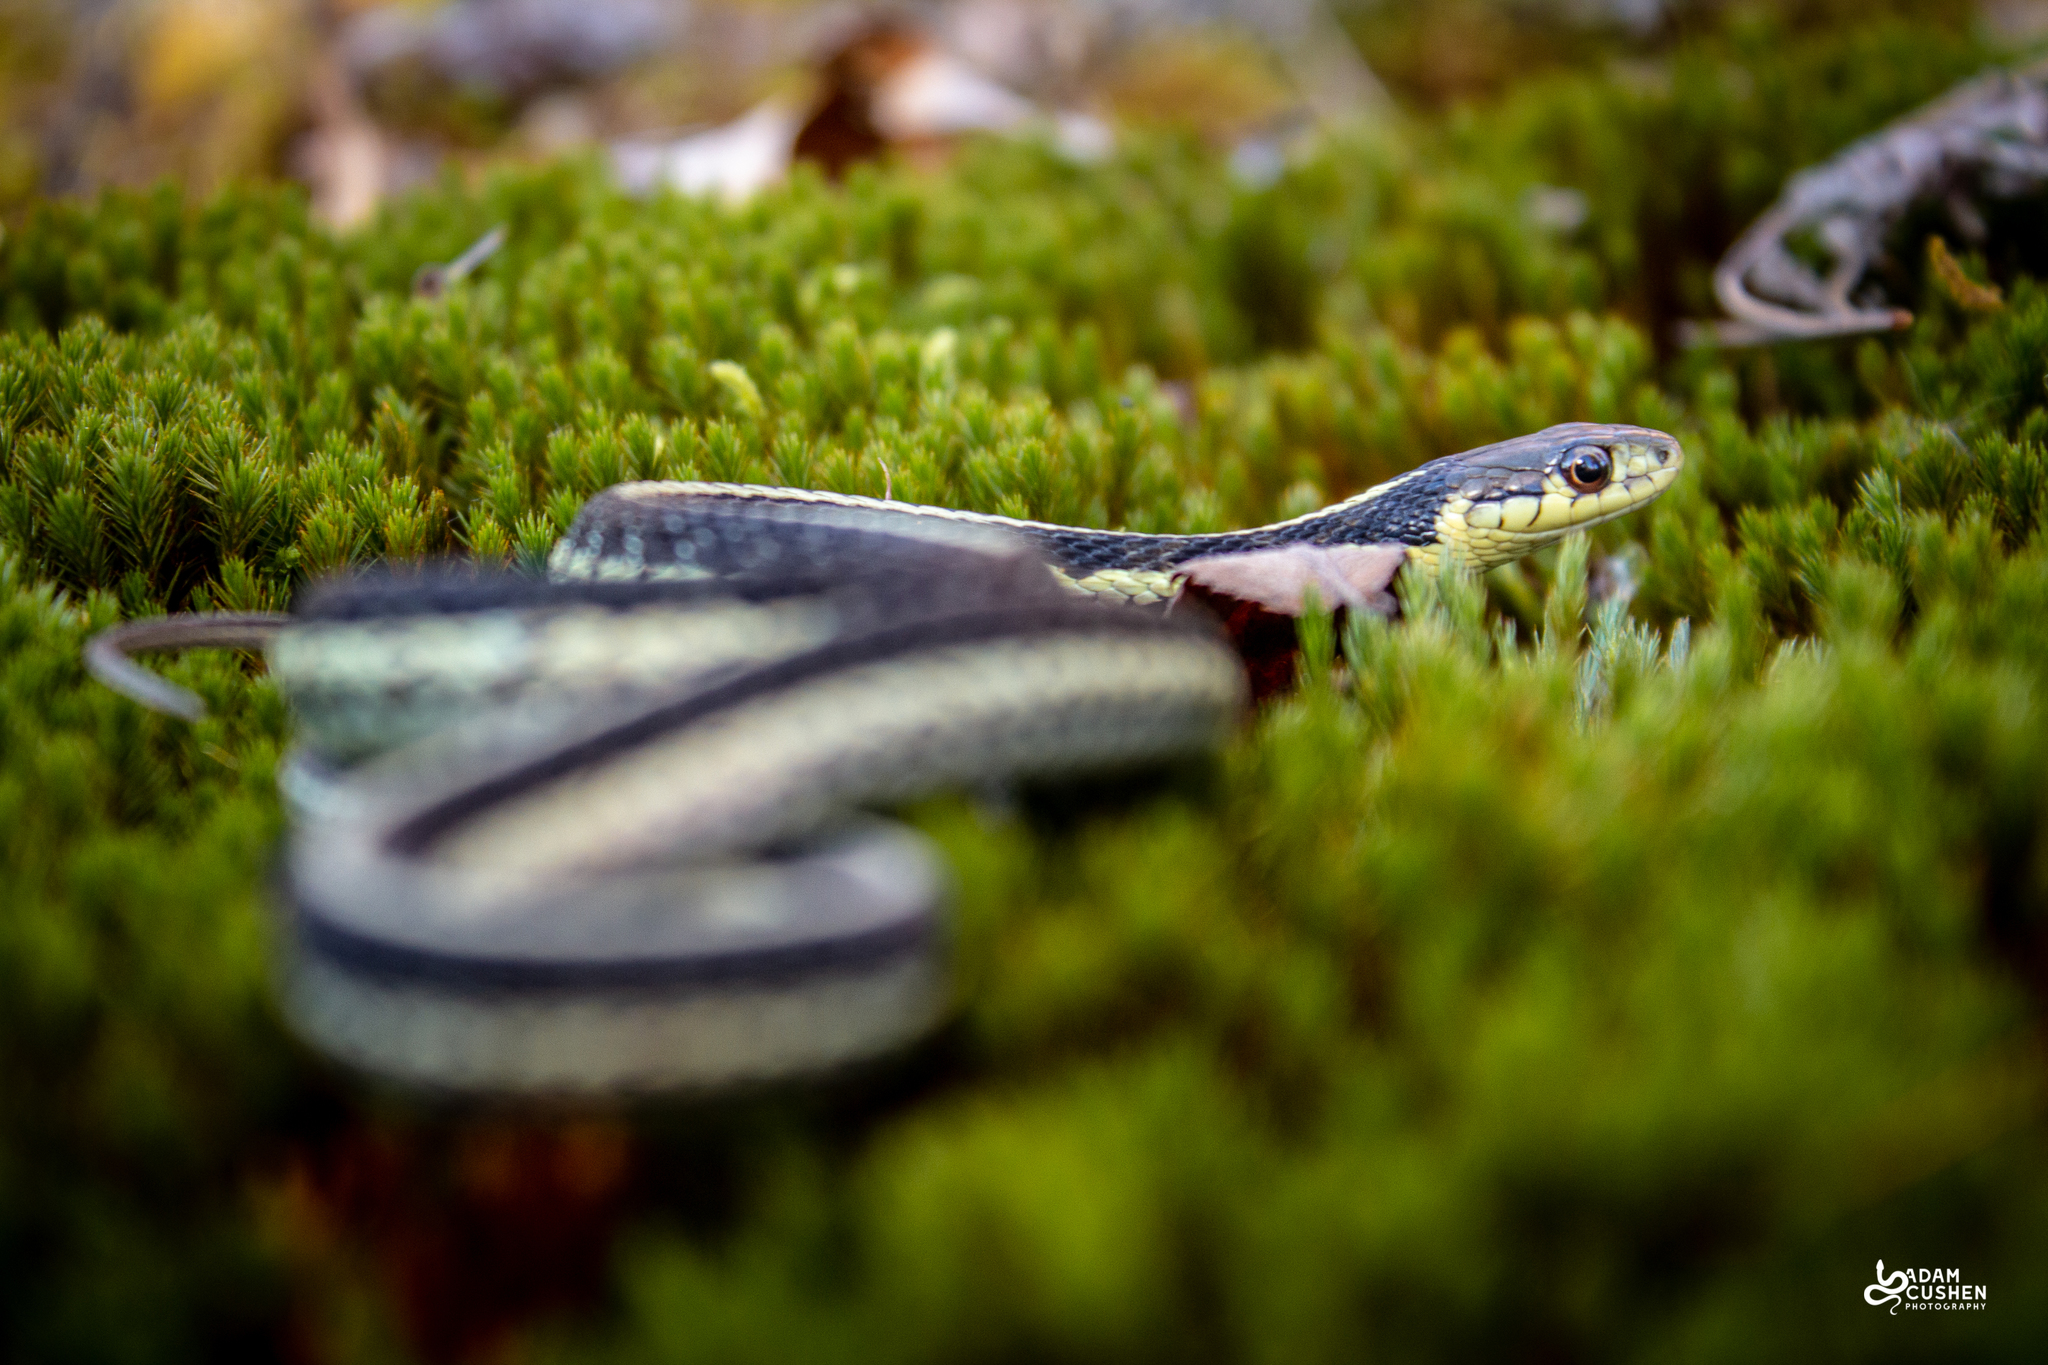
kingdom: Animalia
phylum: Chordata
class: Squamata
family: Colubridae
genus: Thamnophis
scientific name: Thamnophis sirtalis
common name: Common garter snake
